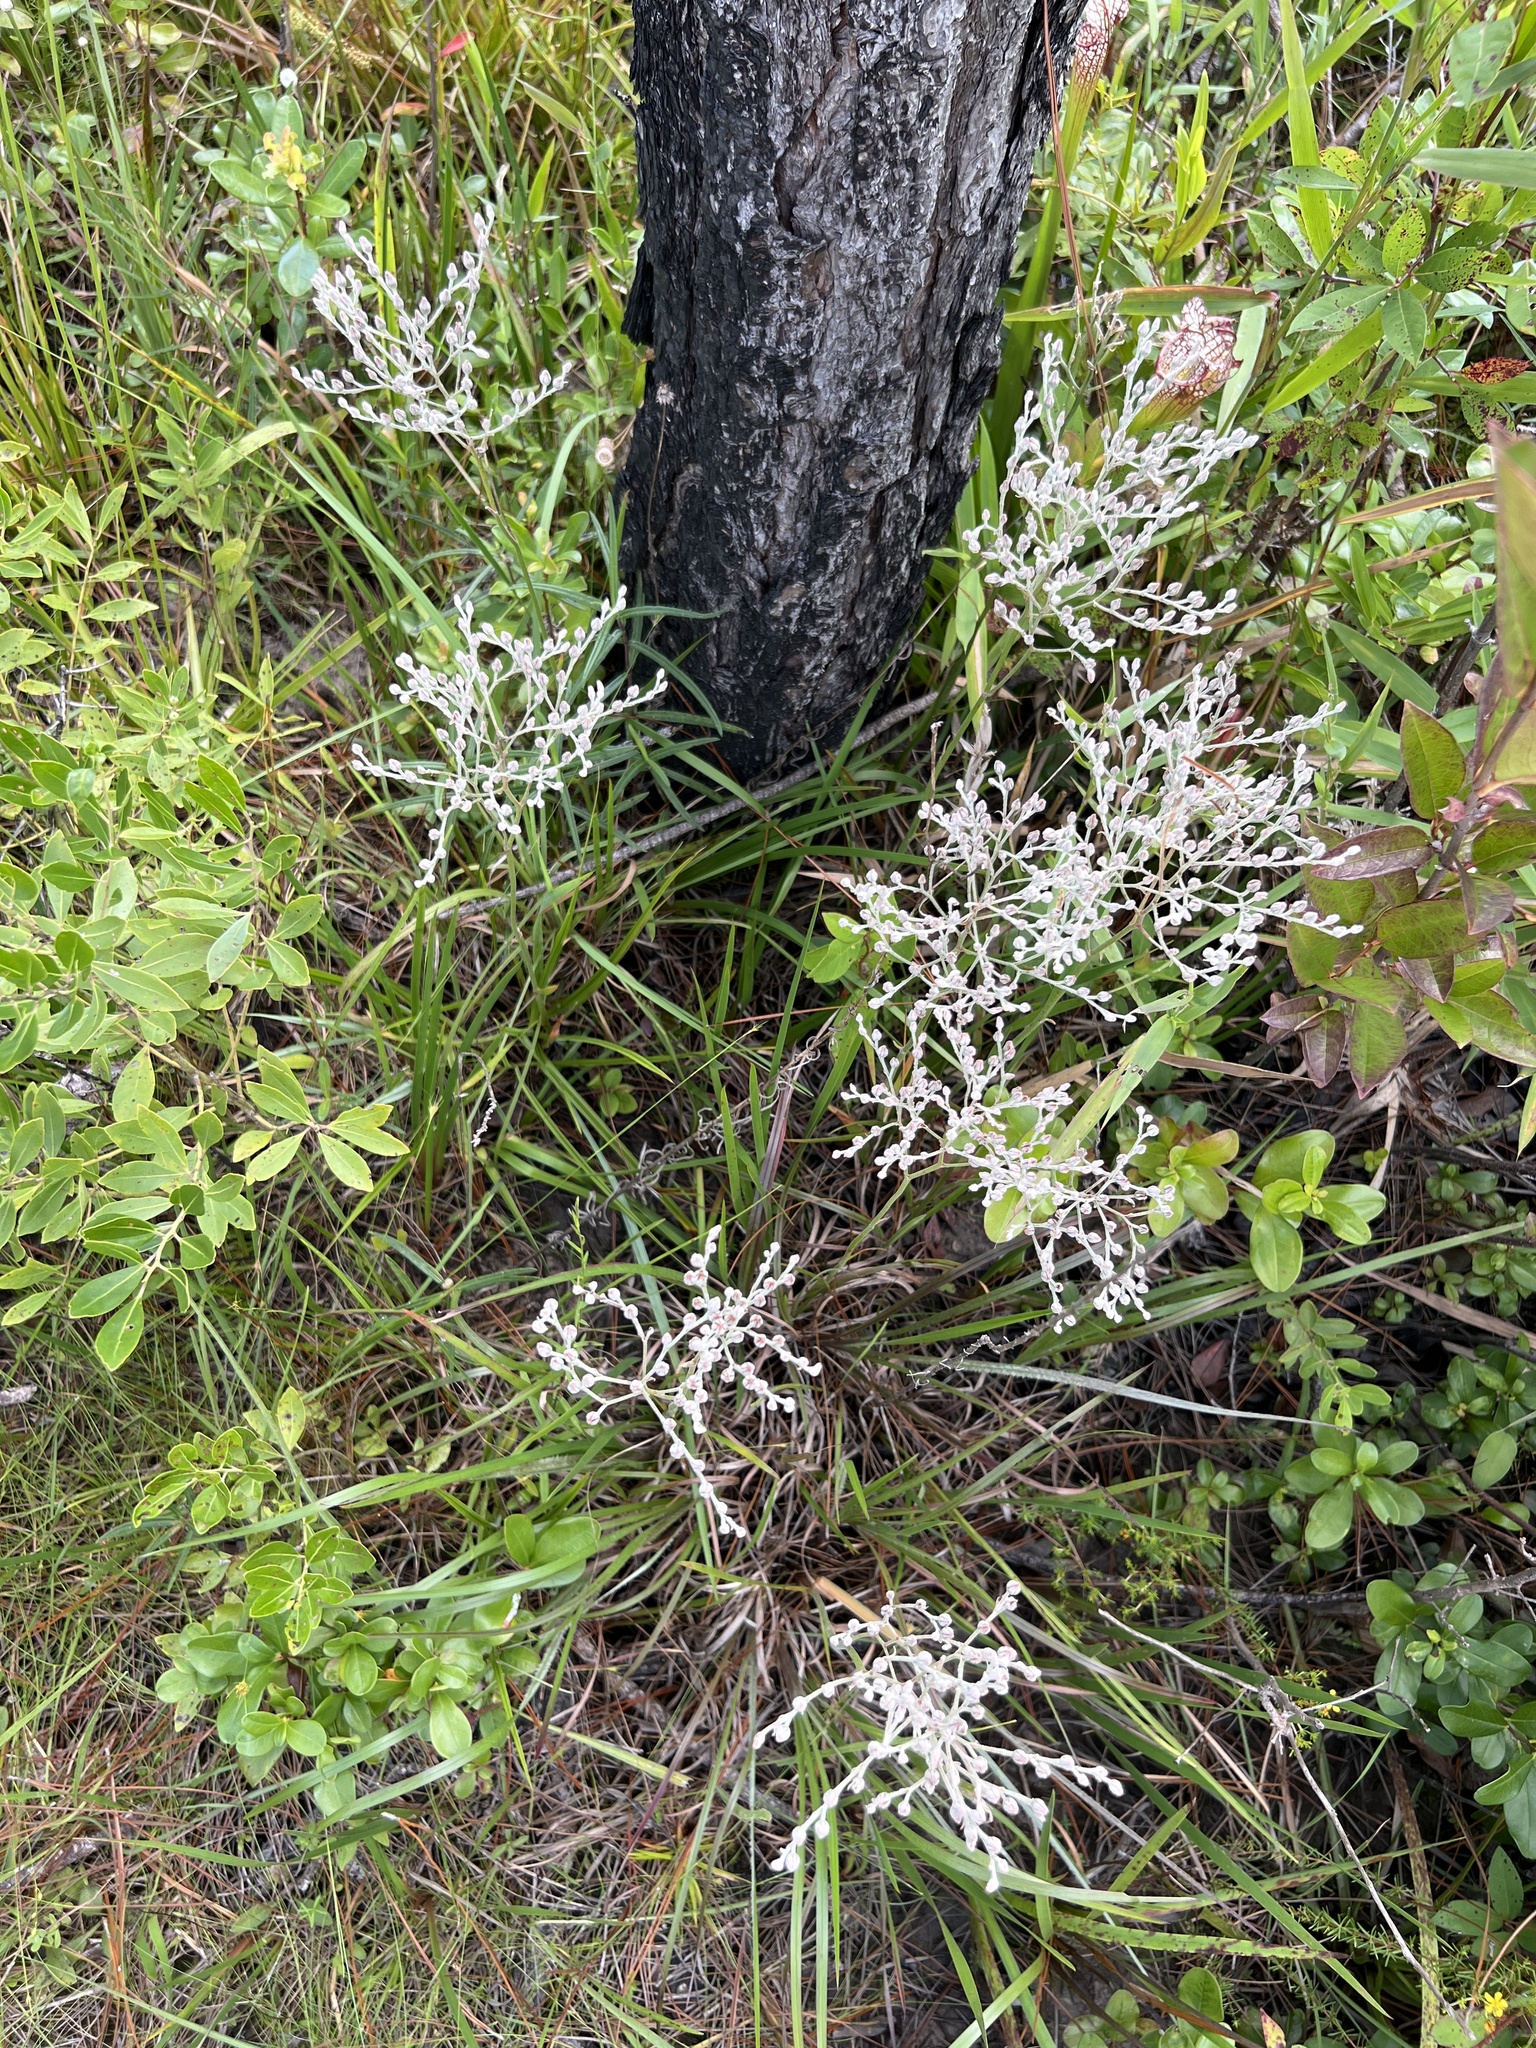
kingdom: Plantae
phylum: Tracheophyta
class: Liliopsida
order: Dioscoreales
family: Nartheciaceae
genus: Lophiola
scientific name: Lophiola aurea
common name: Golden-crest
